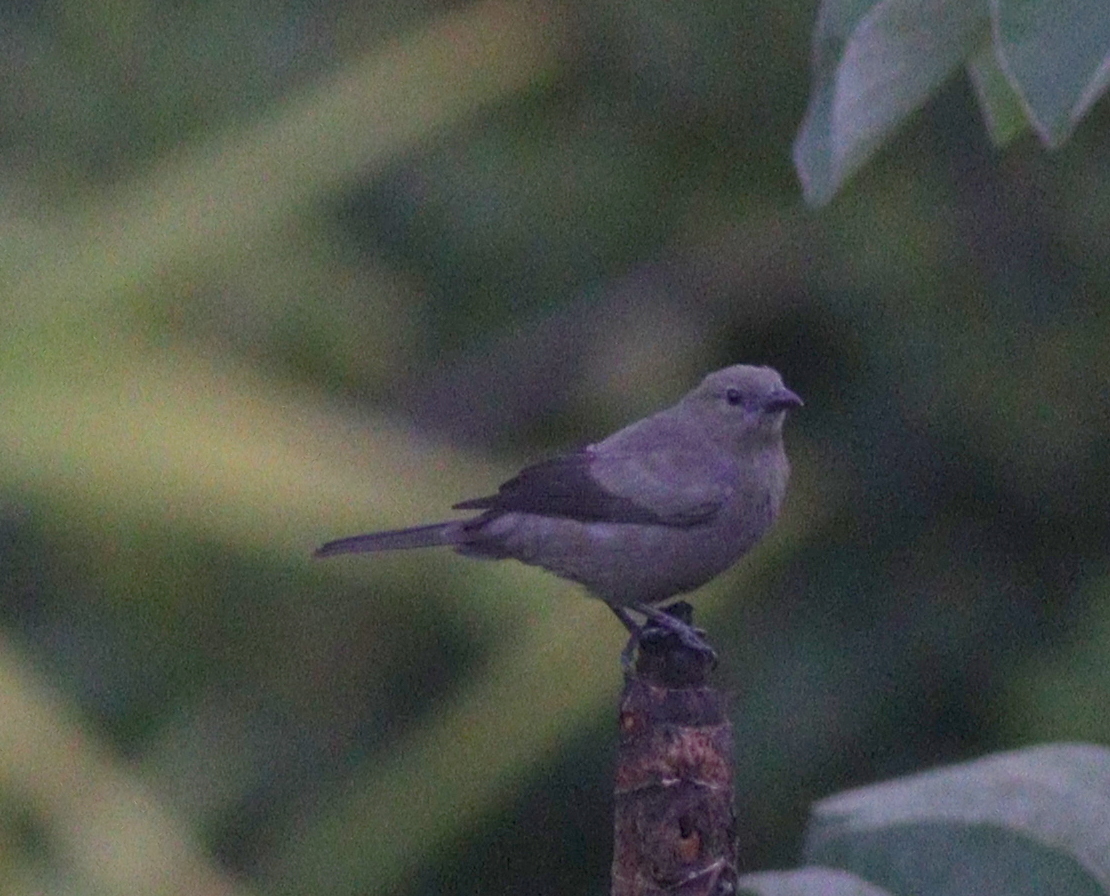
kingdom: Animalia
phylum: Chordata
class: Aves
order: Passeriformes
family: Thraupidae
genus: Thraupis
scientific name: Thraupis palmarum
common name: Palm tanager
